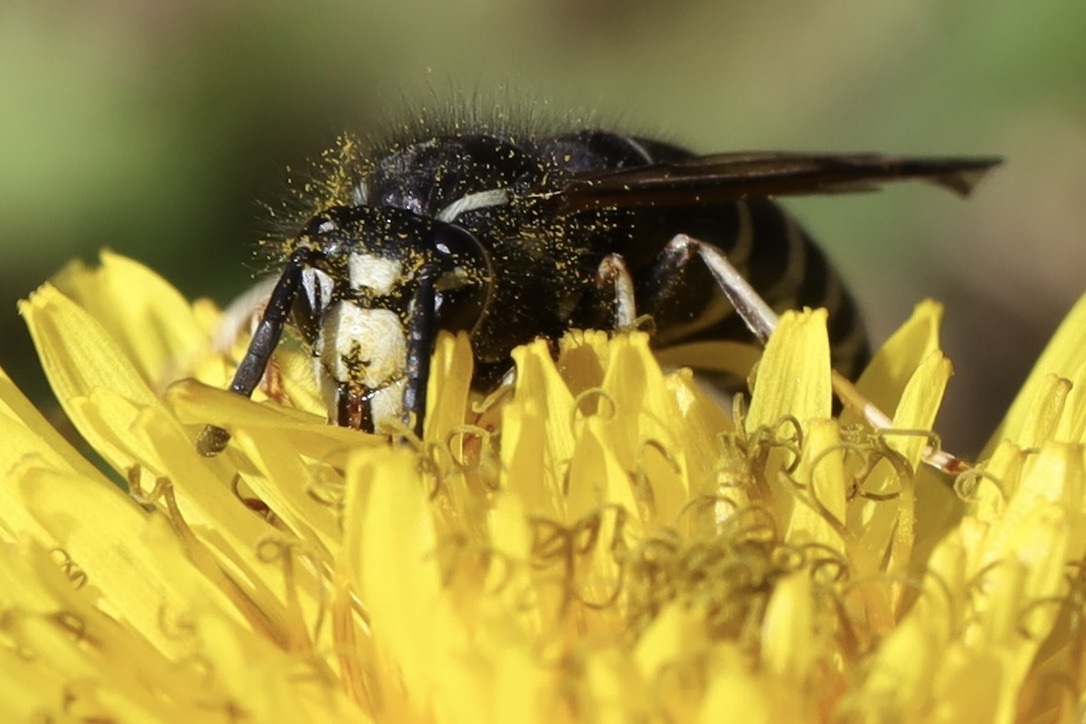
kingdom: Animalia
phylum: Arthropoda
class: Insecta
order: Hymenoptera
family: Vespidae
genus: Vespula
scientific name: Vespula consobrina
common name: Blackjacket
